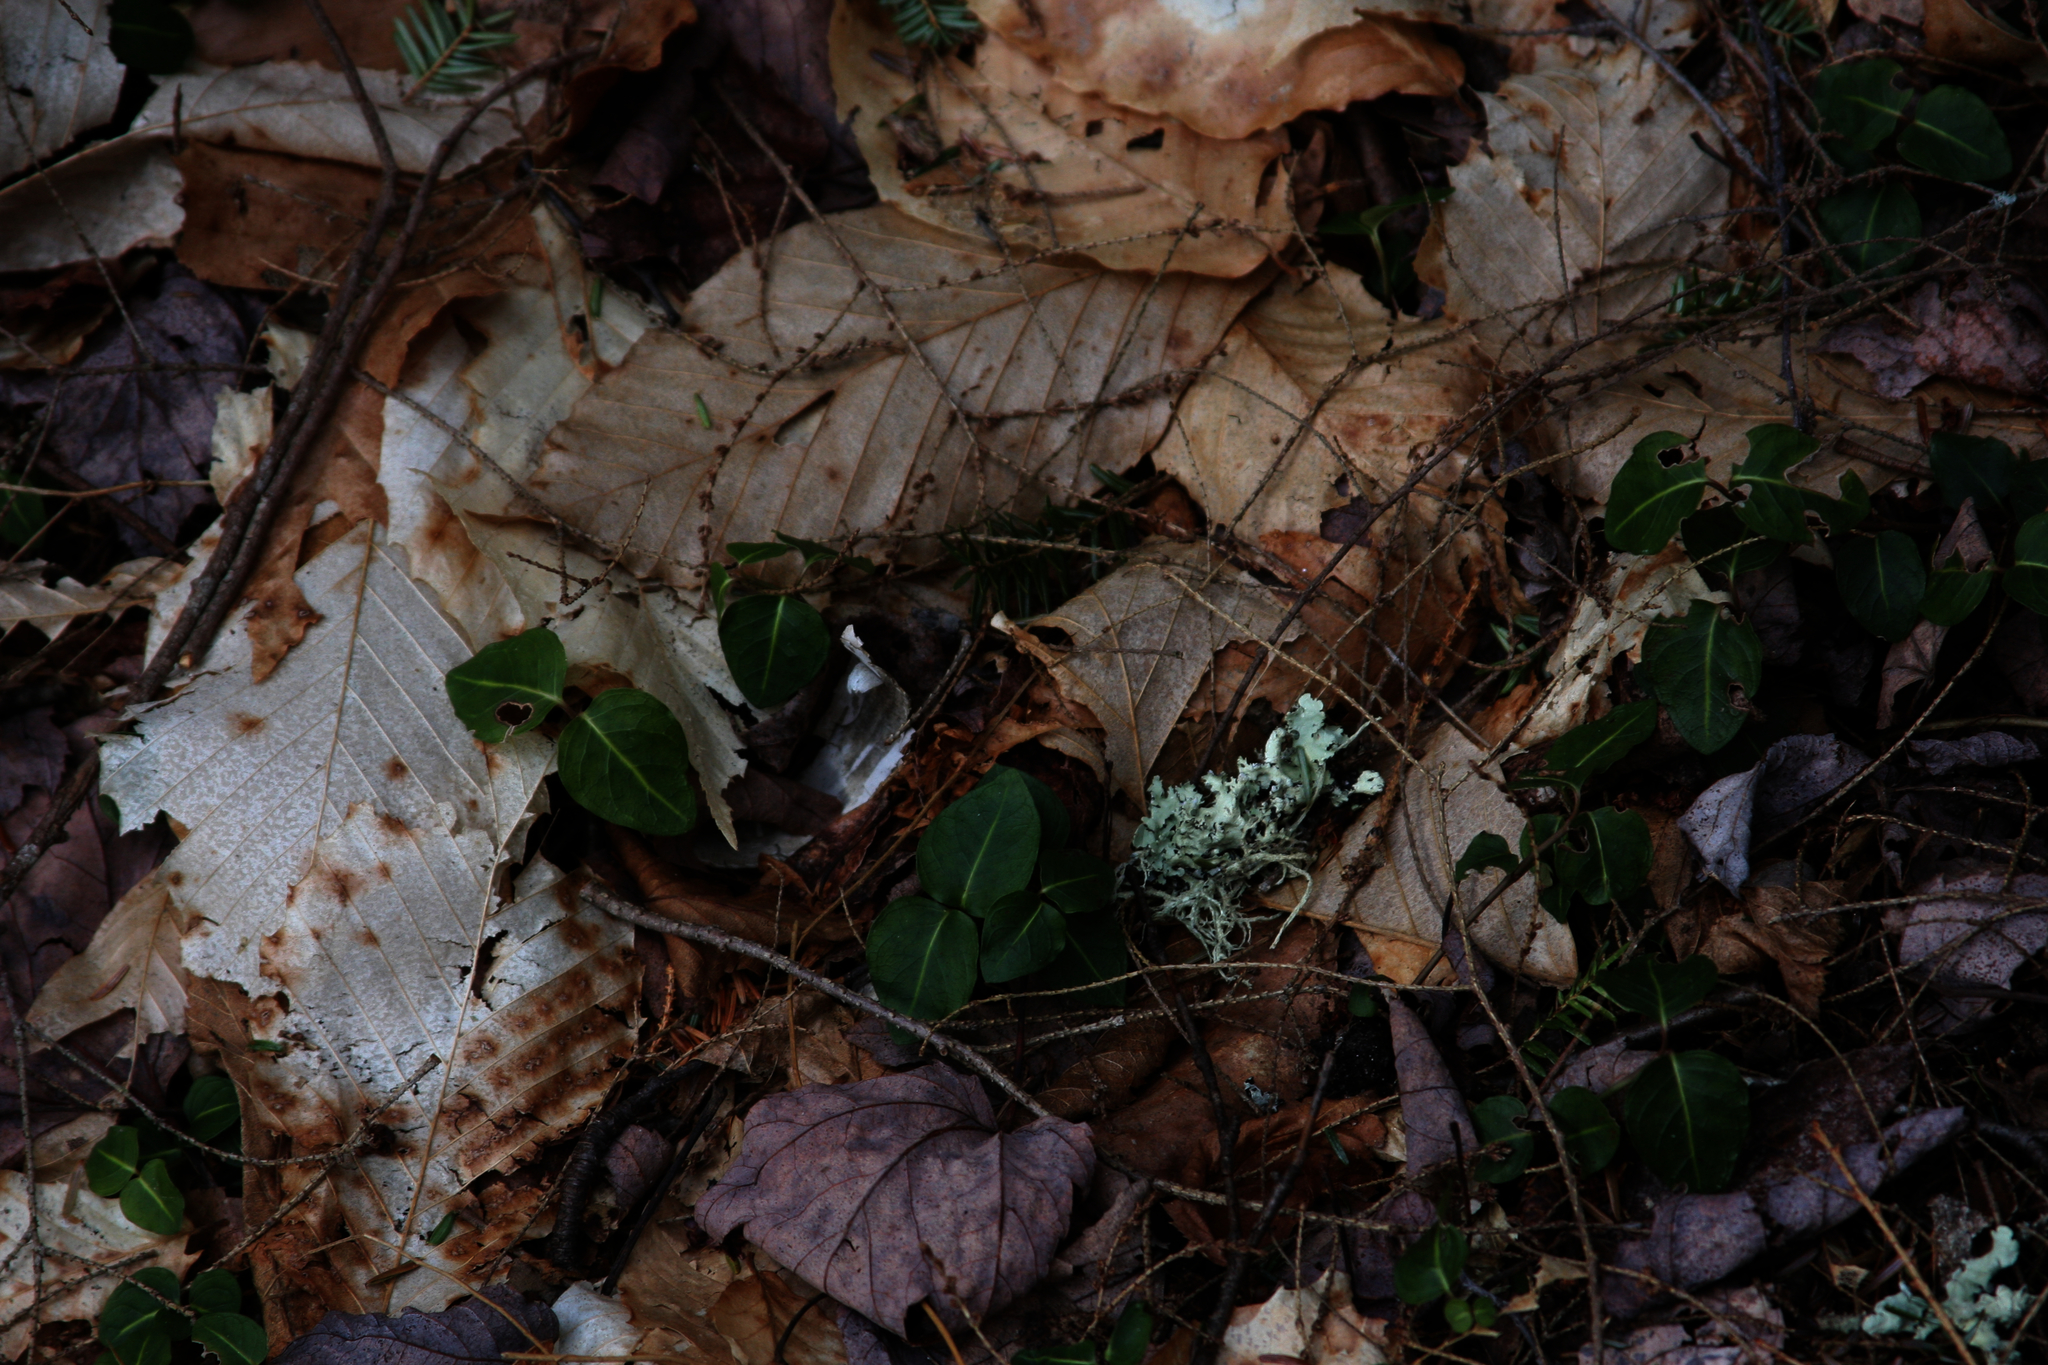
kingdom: Plantae
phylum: Tracheophyta
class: Magnoliopsida
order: Gentianales
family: Rubiaceae
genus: Mitchella
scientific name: Mitchella repens
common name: Partridge-berry
